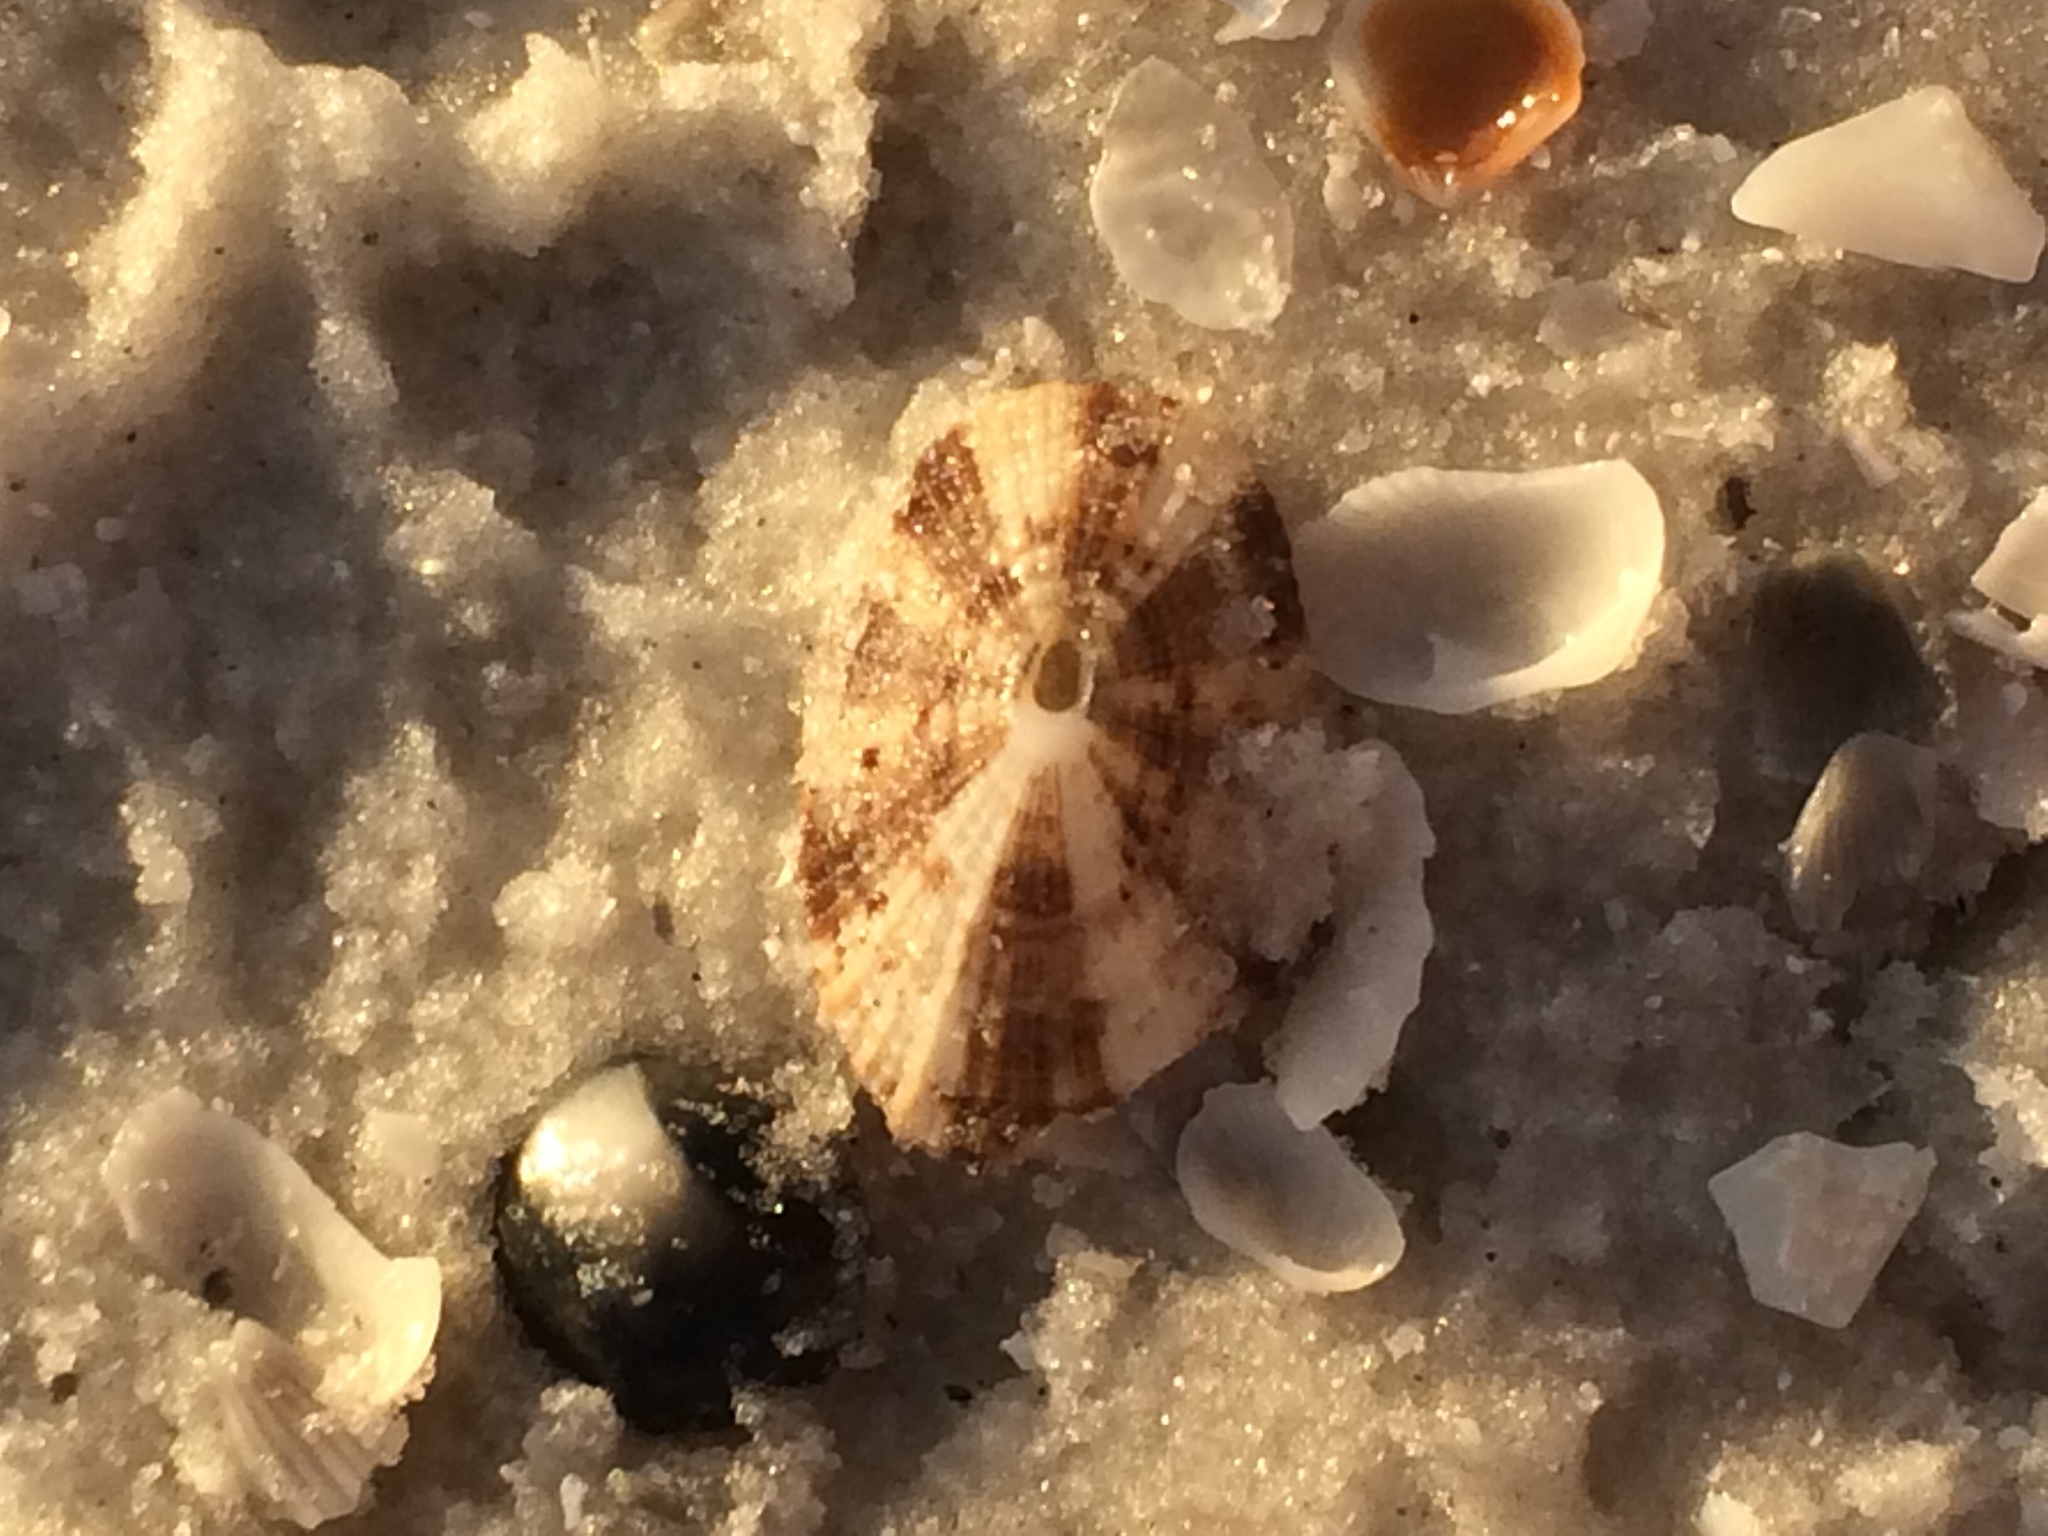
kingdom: Animalia
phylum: Mollusca
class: Gastropoda
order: Lepetellida
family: Fissurellidae
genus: Diodora
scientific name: Diodora cayenensis
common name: Cayenne keyhole limpet
